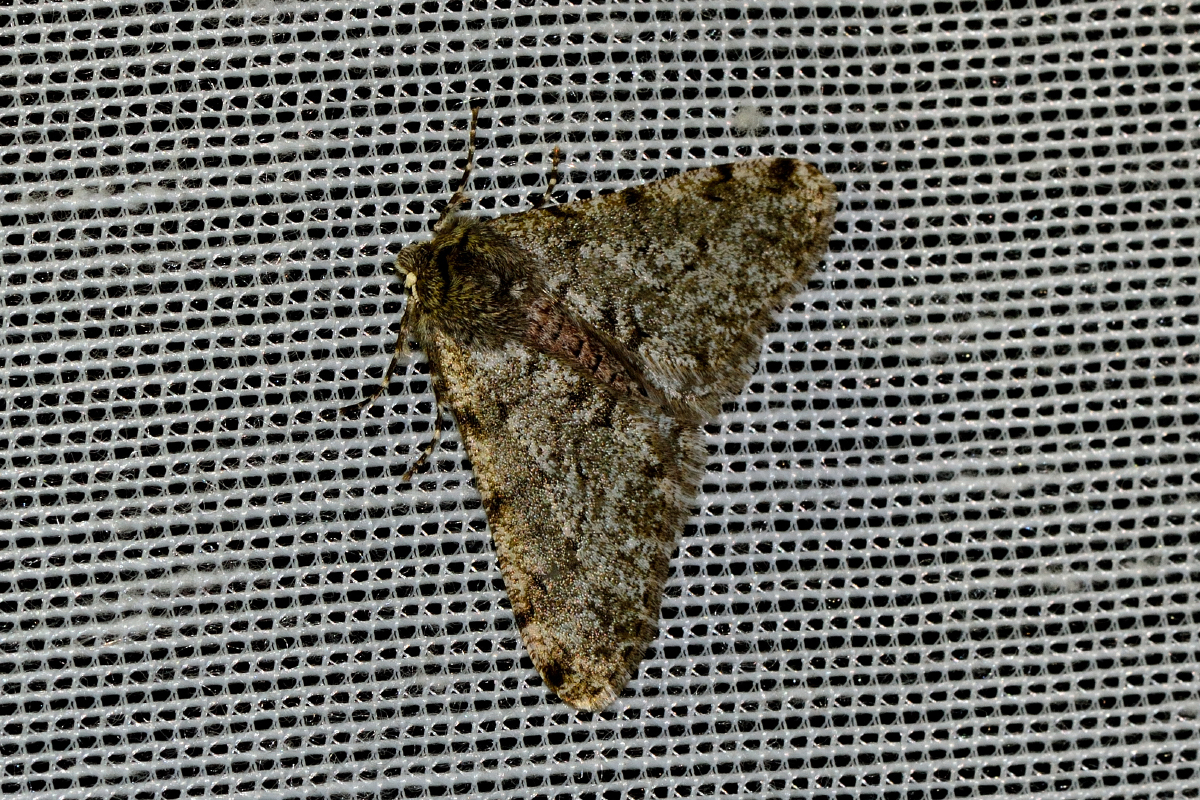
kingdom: Animalia
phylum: Arthropoda
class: Insecta
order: Lepidoptera
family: Geometridae
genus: Phigalia
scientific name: Phigalia pilosaria
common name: Pale brindled beauty
